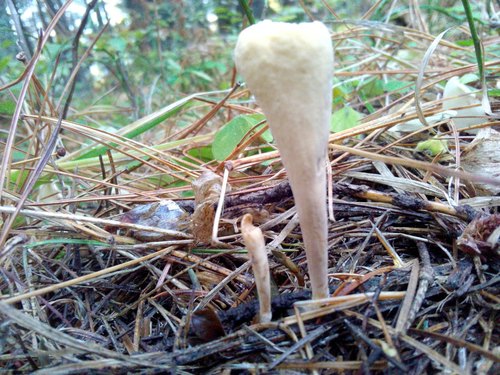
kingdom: Fungi
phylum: Basidiomycota
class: Agaricomycetes
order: Gomphales
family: Clavariadelphaceae
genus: Clavariadelphus
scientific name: Clavariadelphus
